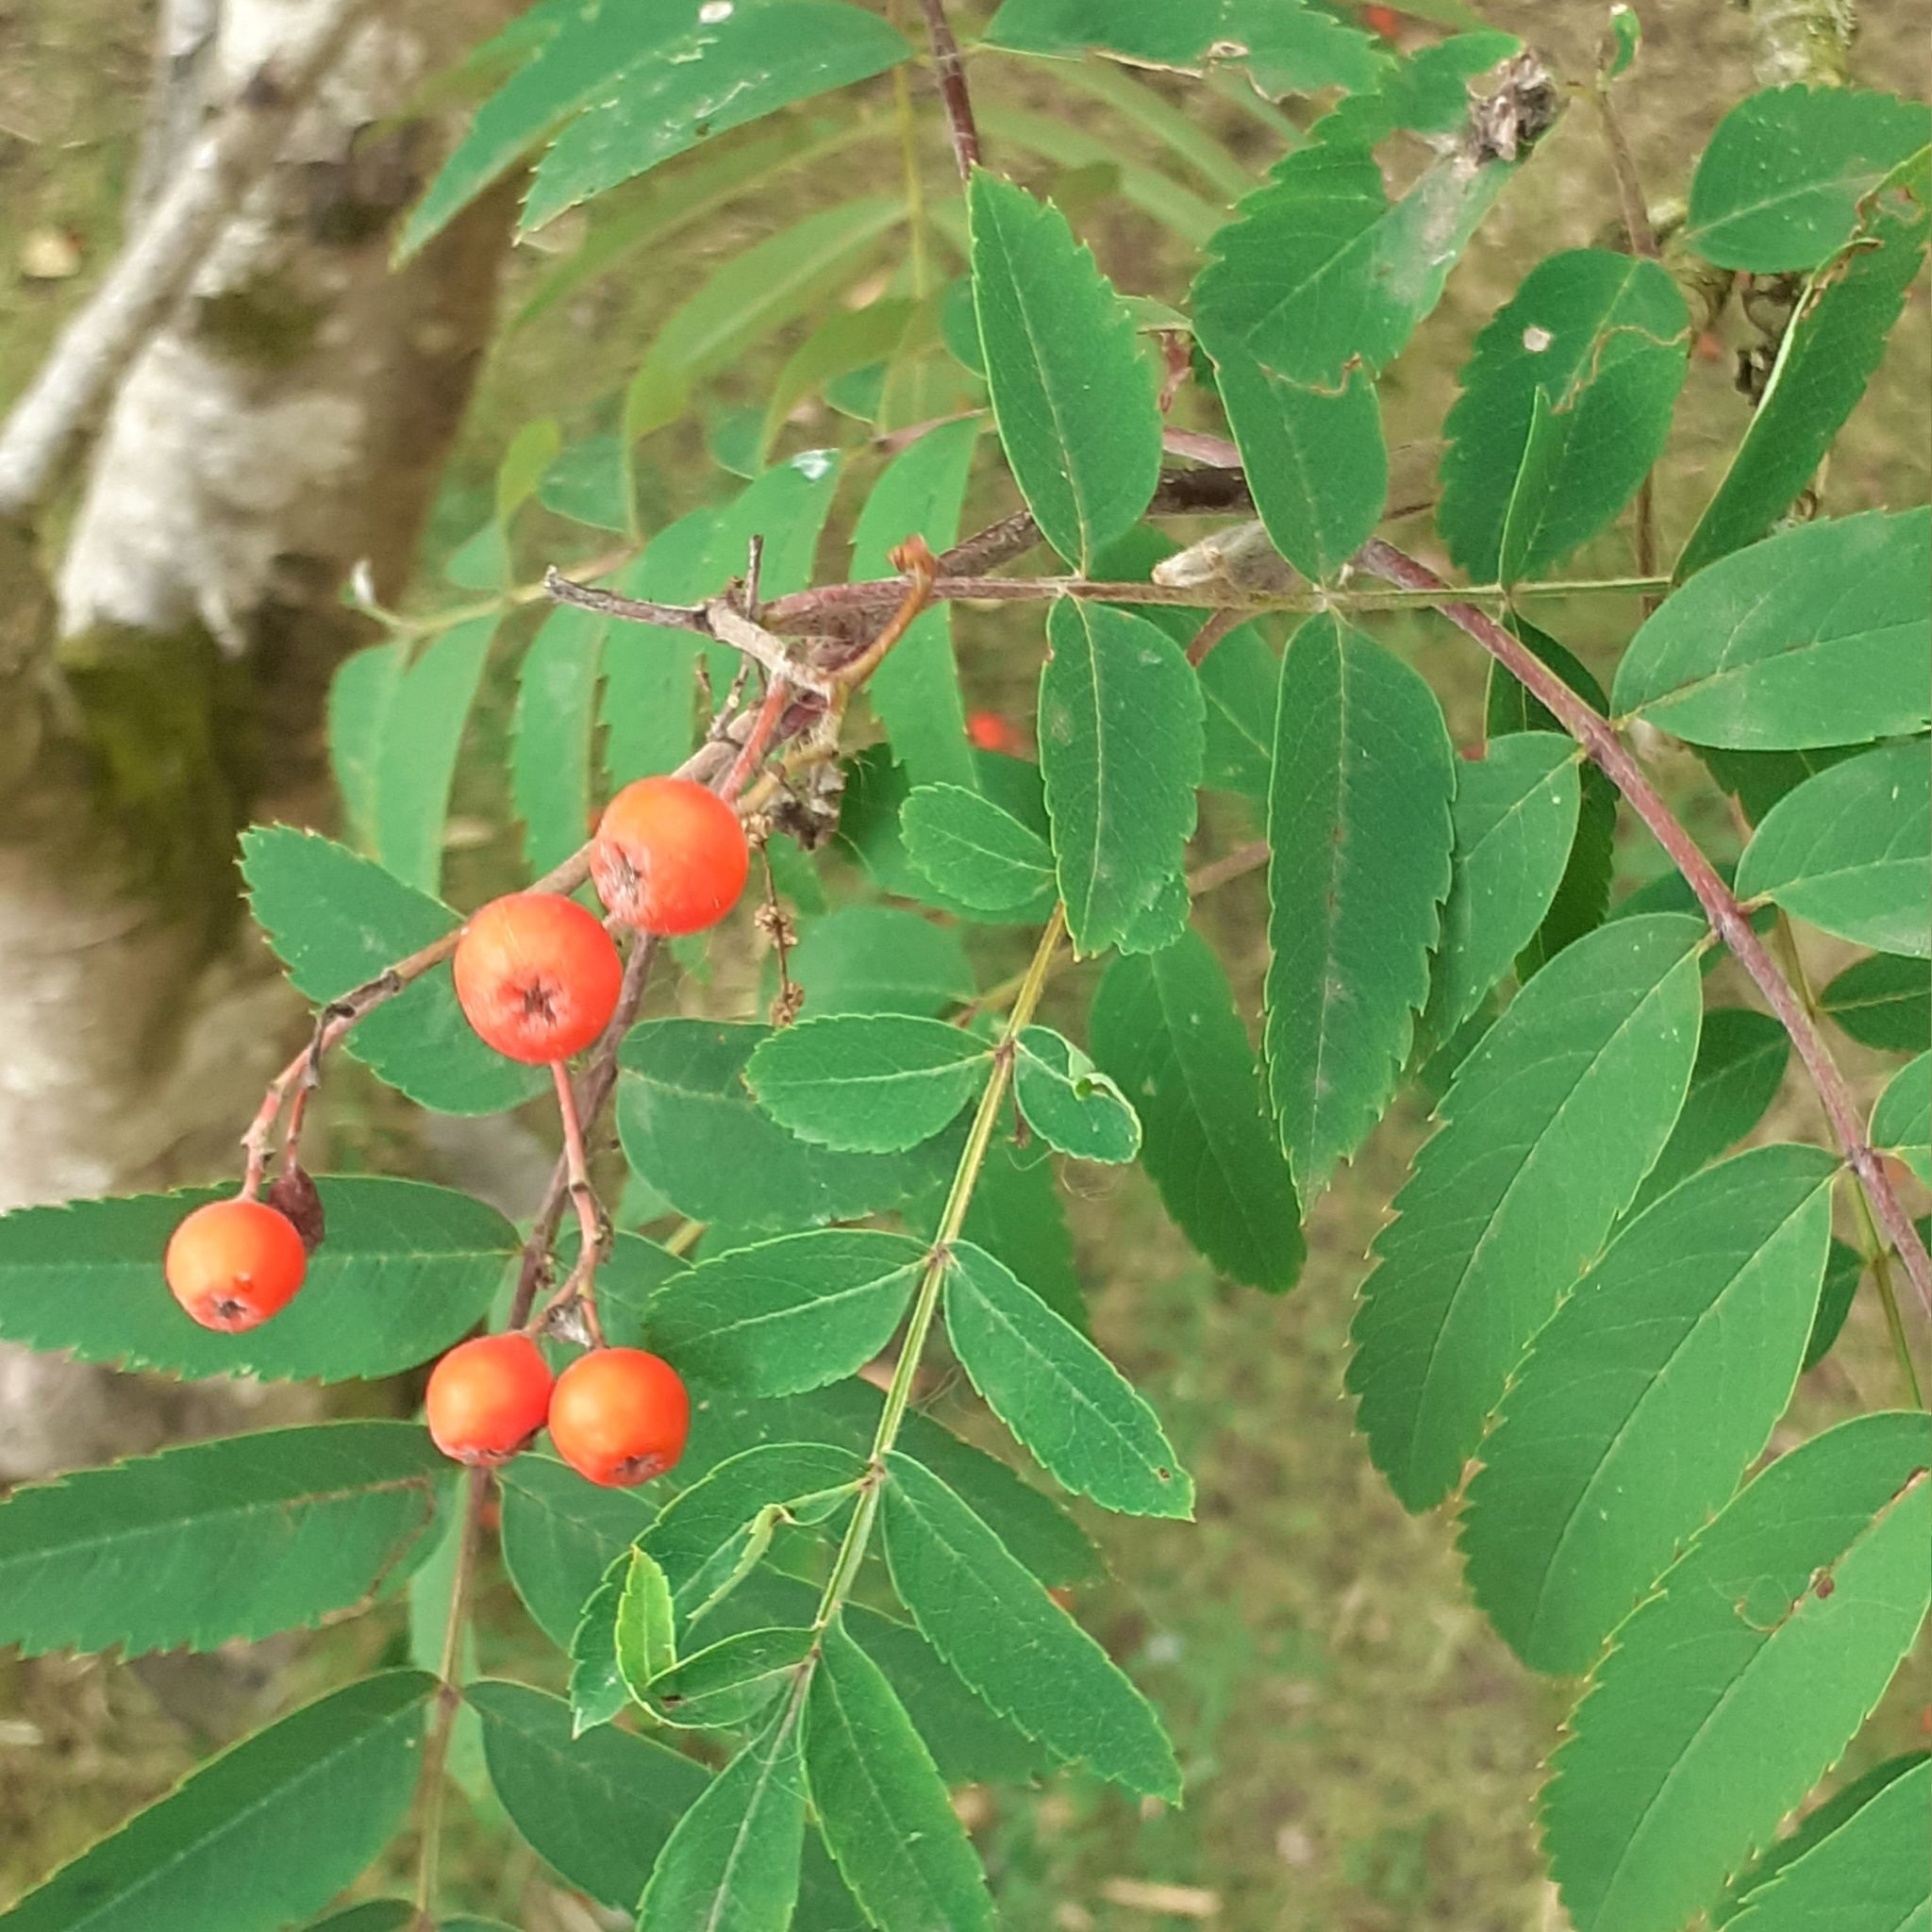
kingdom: Plantae
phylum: Tracheophyta
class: Magnoliopsida
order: Rosales
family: Rosaceae
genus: Sorbus
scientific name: Sorbus aucuparia
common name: Rowan
